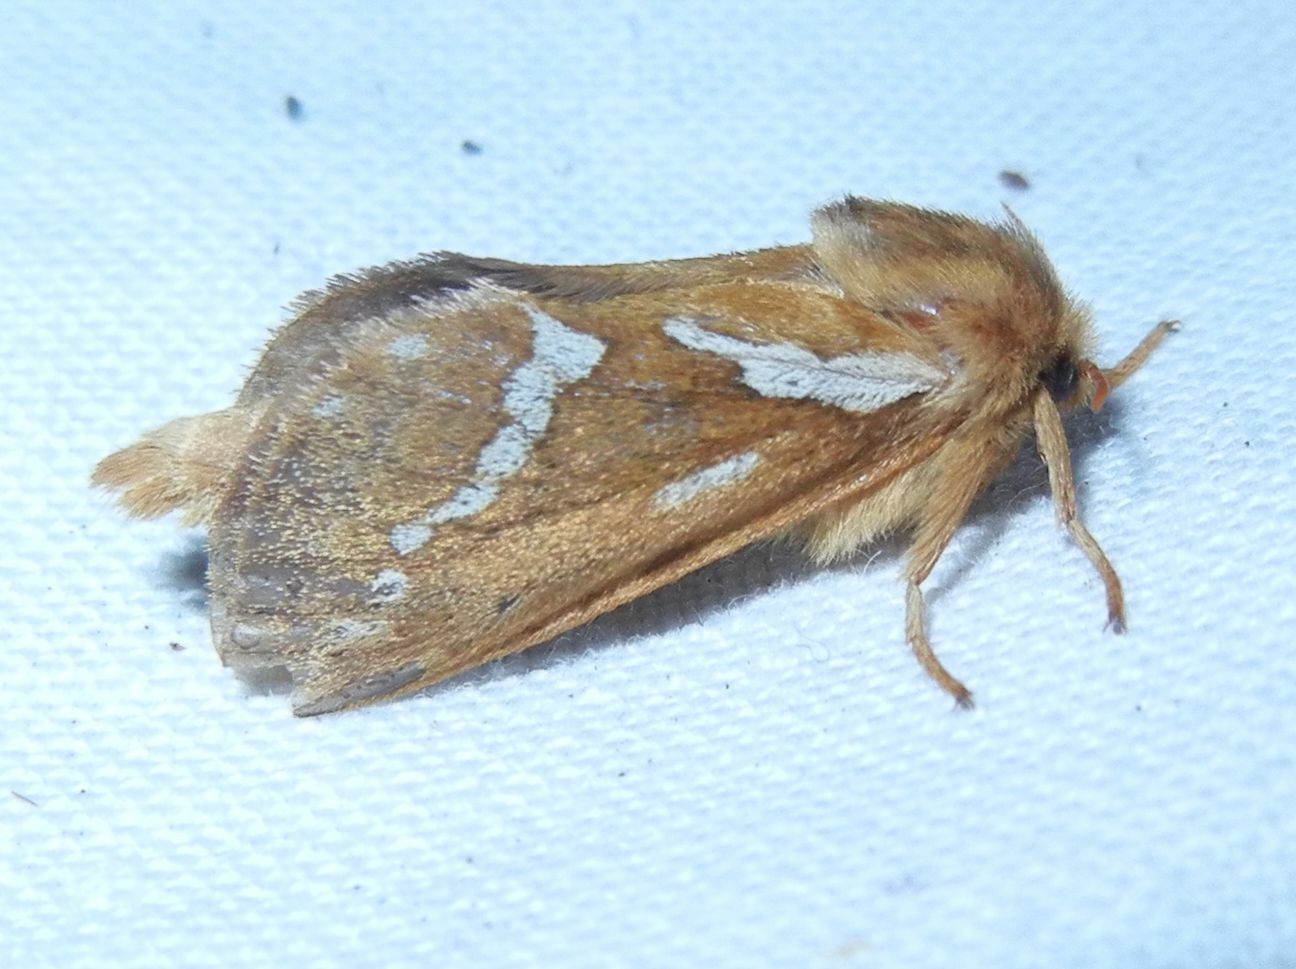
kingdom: Animalia
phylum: Arthropoda
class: Insecta
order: Lepidoptera
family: Hepialidae
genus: Korscheltellus
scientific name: Korscheltellus lupulina
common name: Common swift
